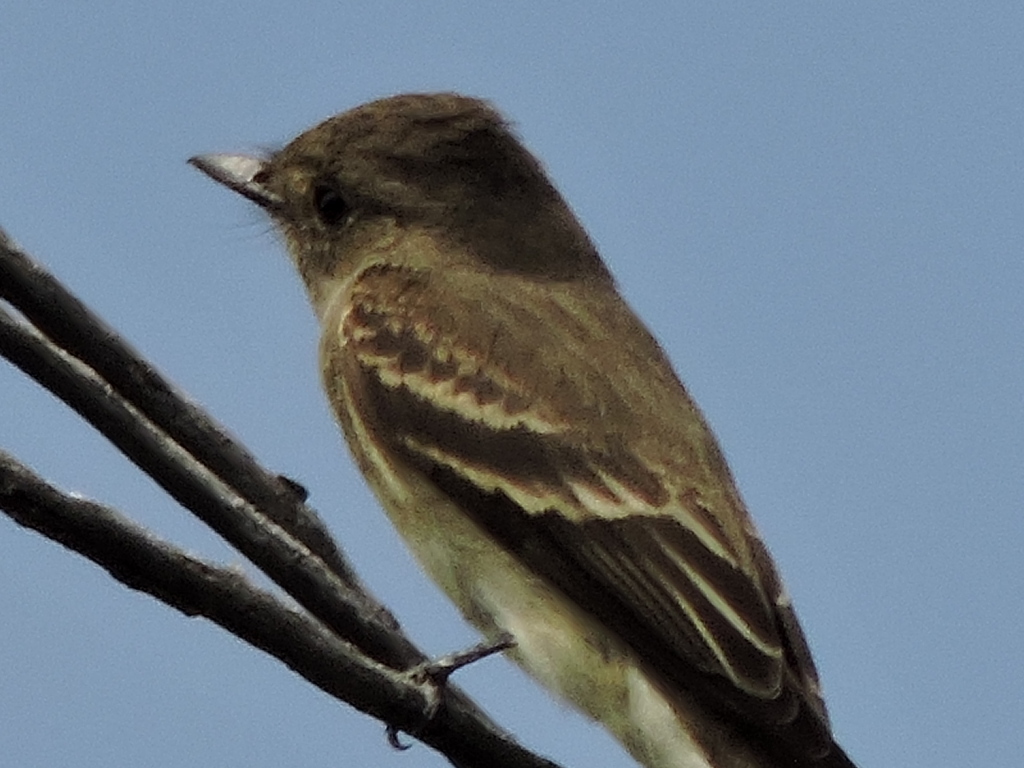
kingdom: Animalia
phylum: Chordata
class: Aves
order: Passeriformes
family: Tyrannidae
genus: Contopus
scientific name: Contopus
